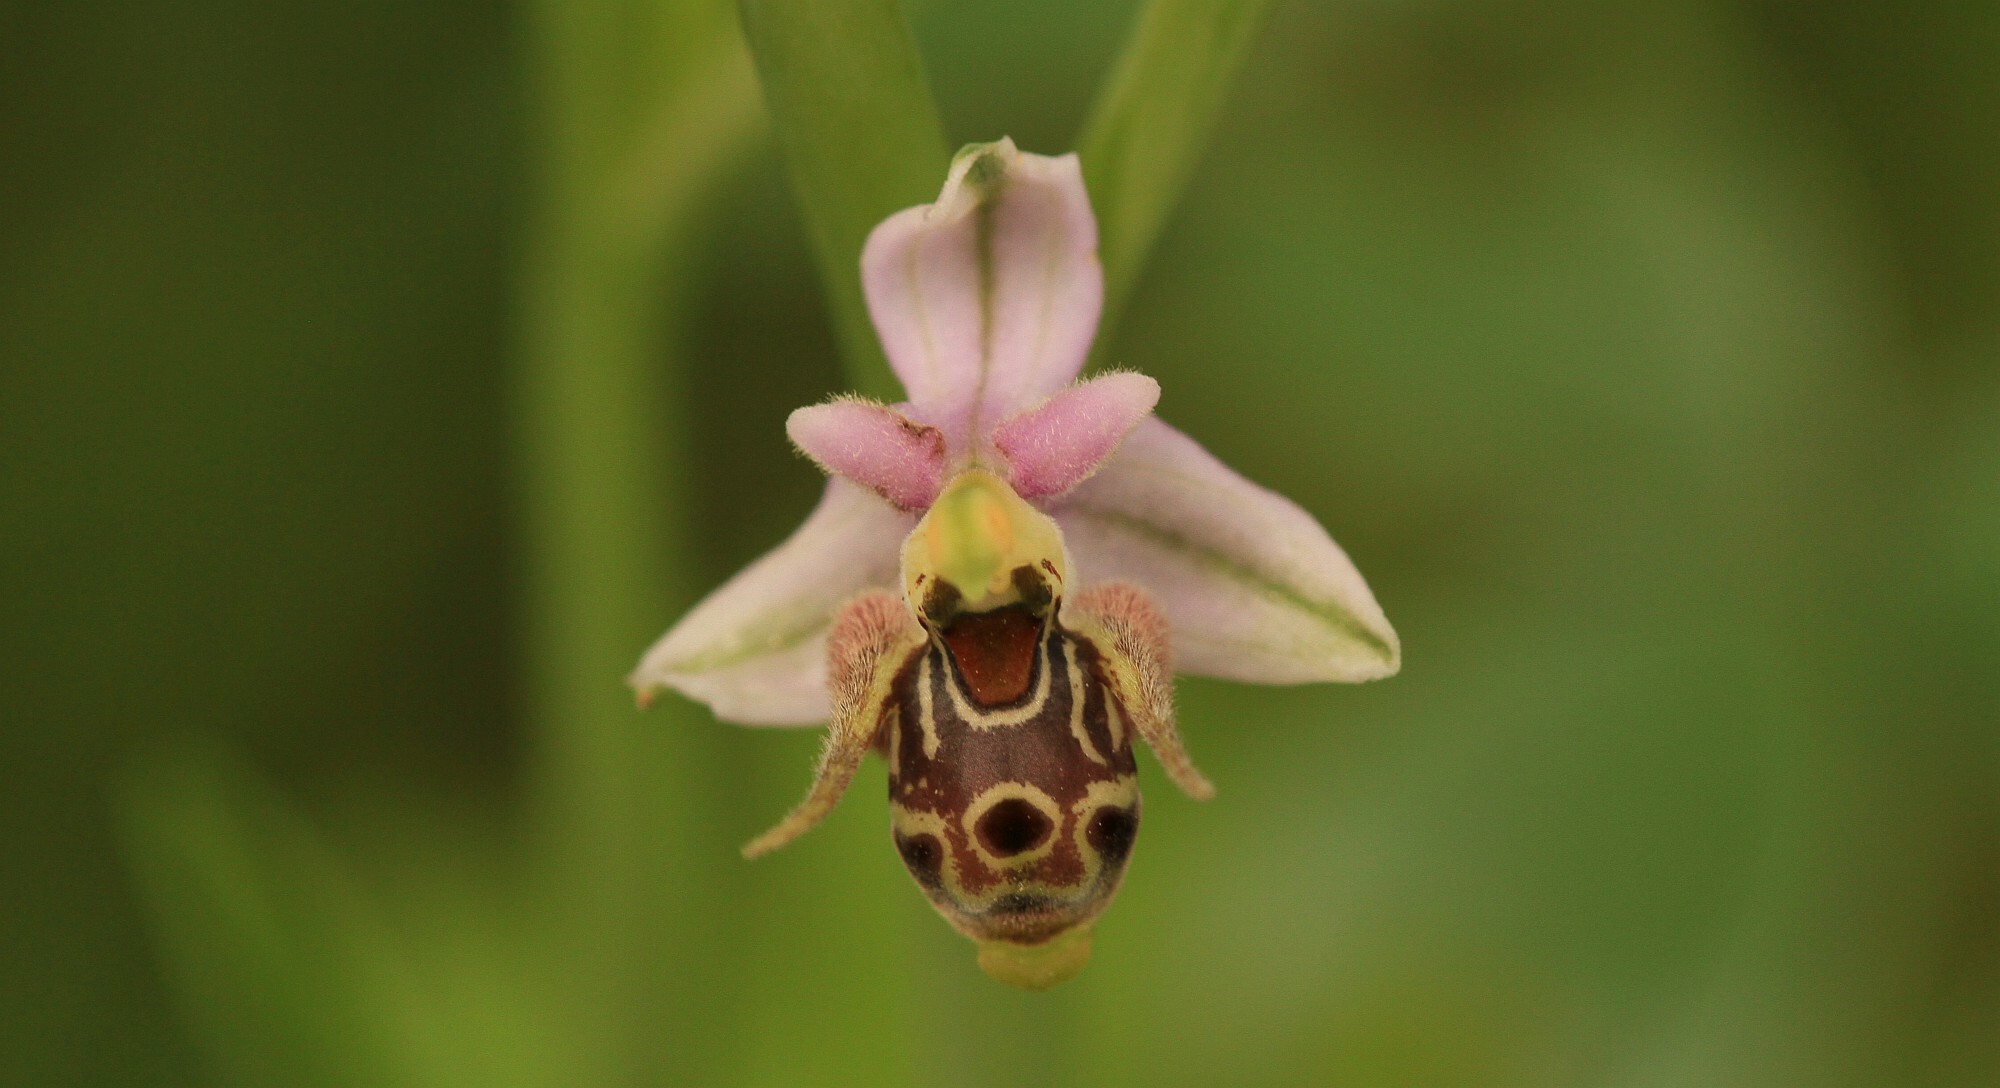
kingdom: Plantae
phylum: Tracheophyta
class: Liliopsida
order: Asparagales
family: Orchidaceae
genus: Ophrys
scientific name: Ophrys
